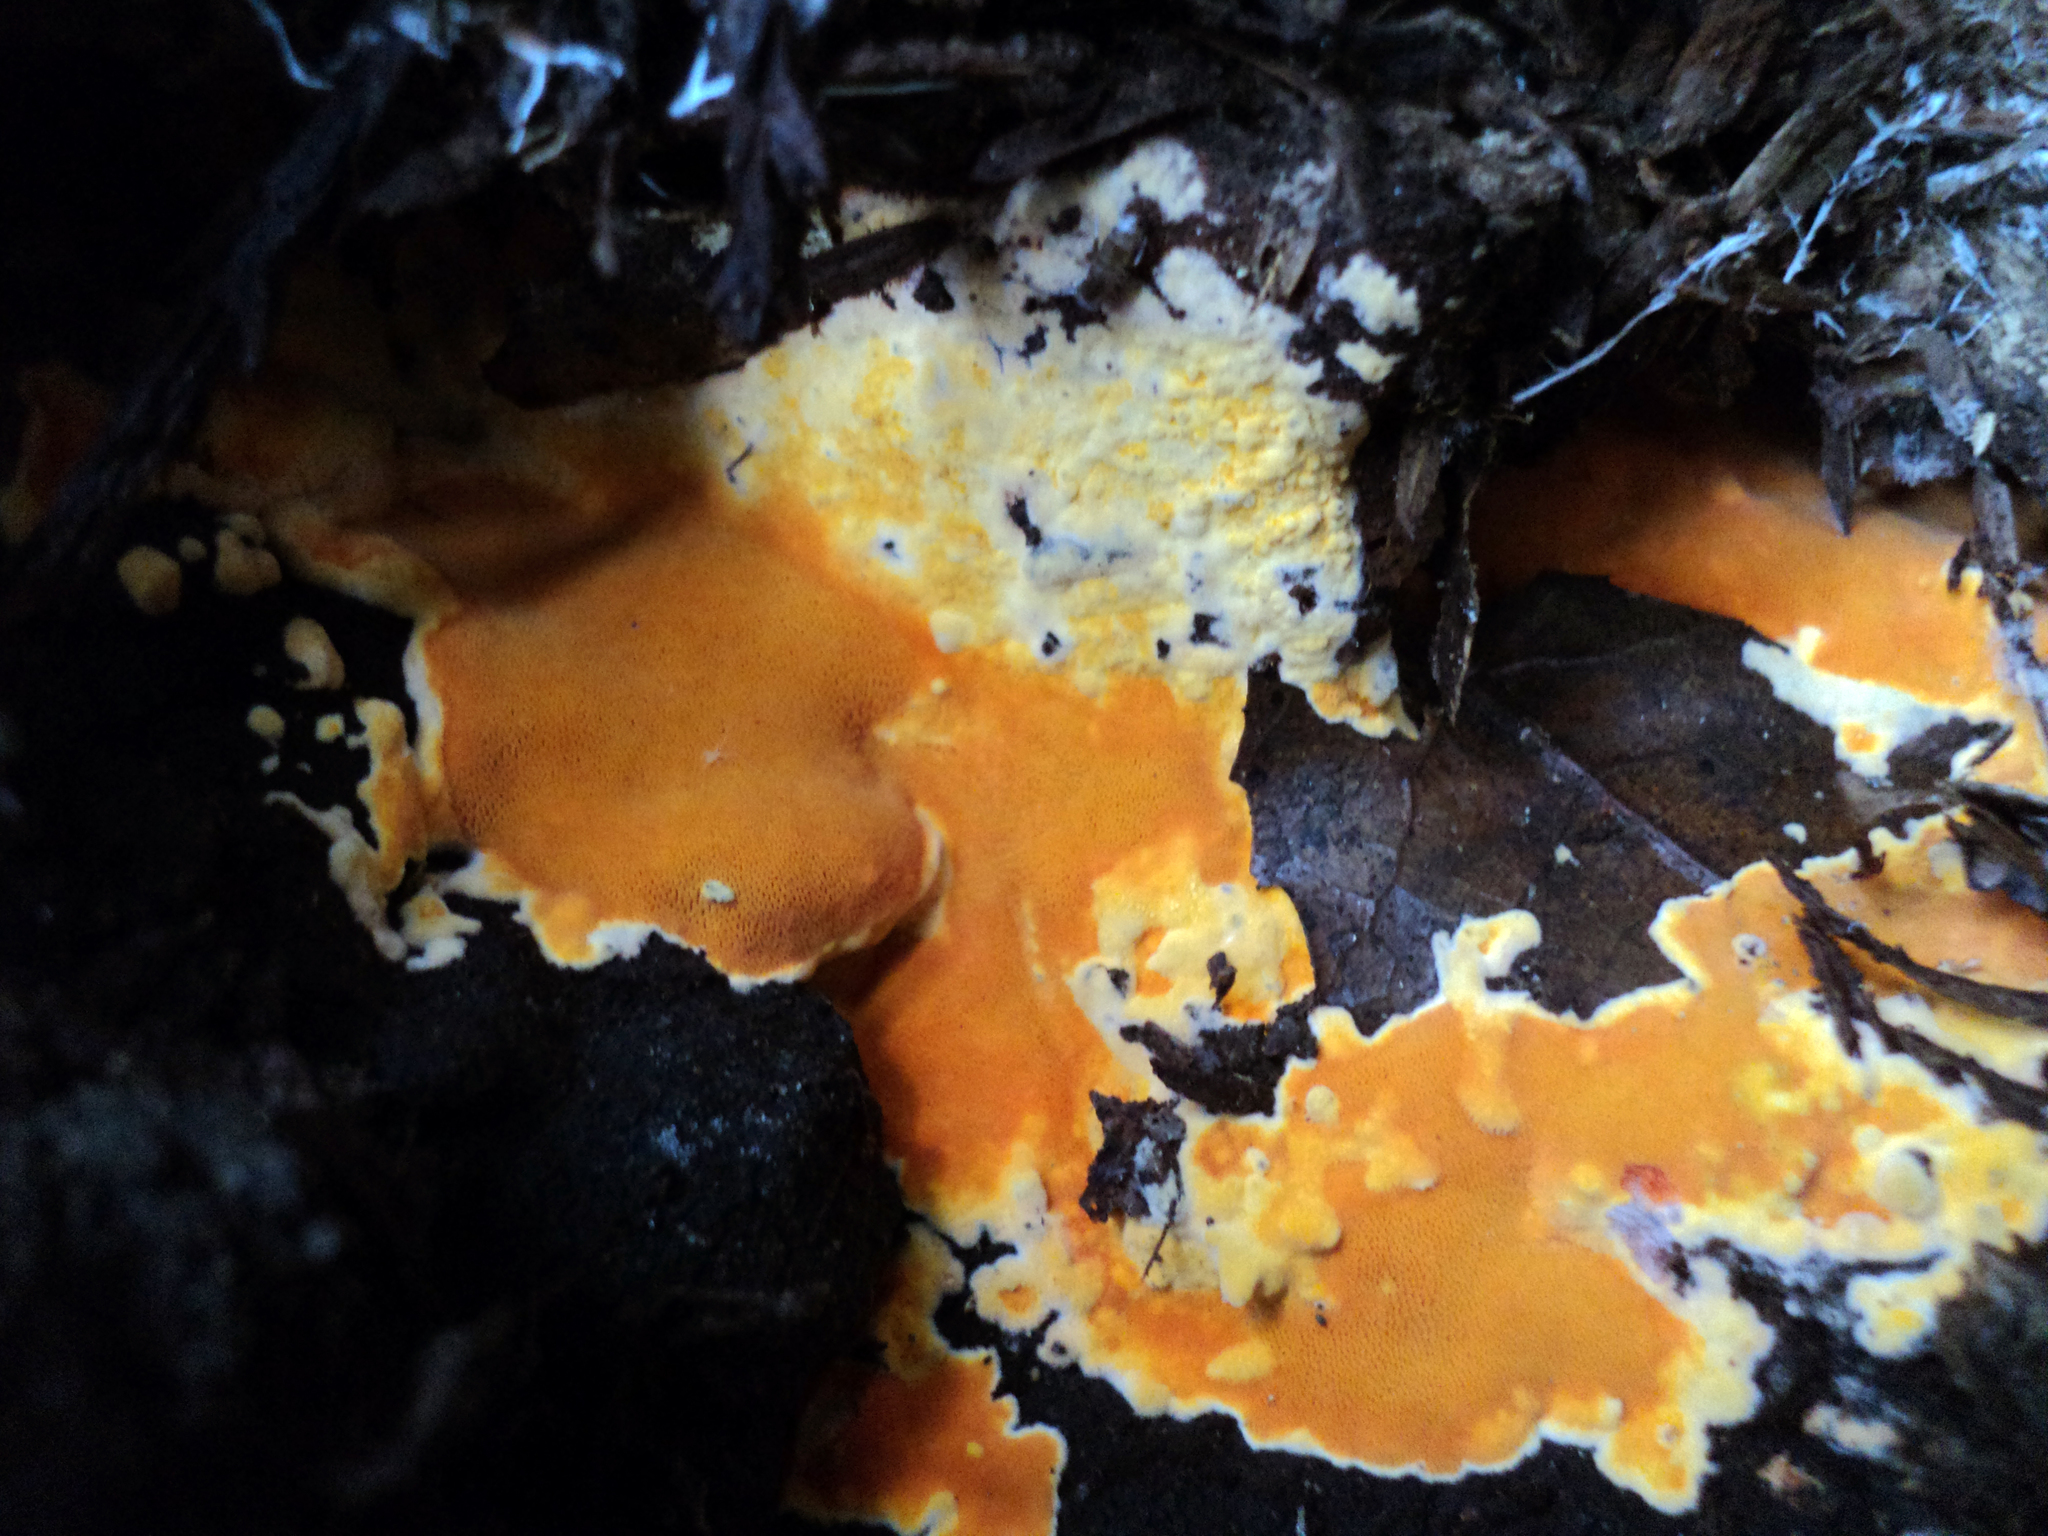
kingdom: Fungi
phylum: Basidiomycota
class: Agaricomycetes
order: Polyporales
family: Irpicaceae
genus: Ceriporia
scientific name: Ceriporia spissa
